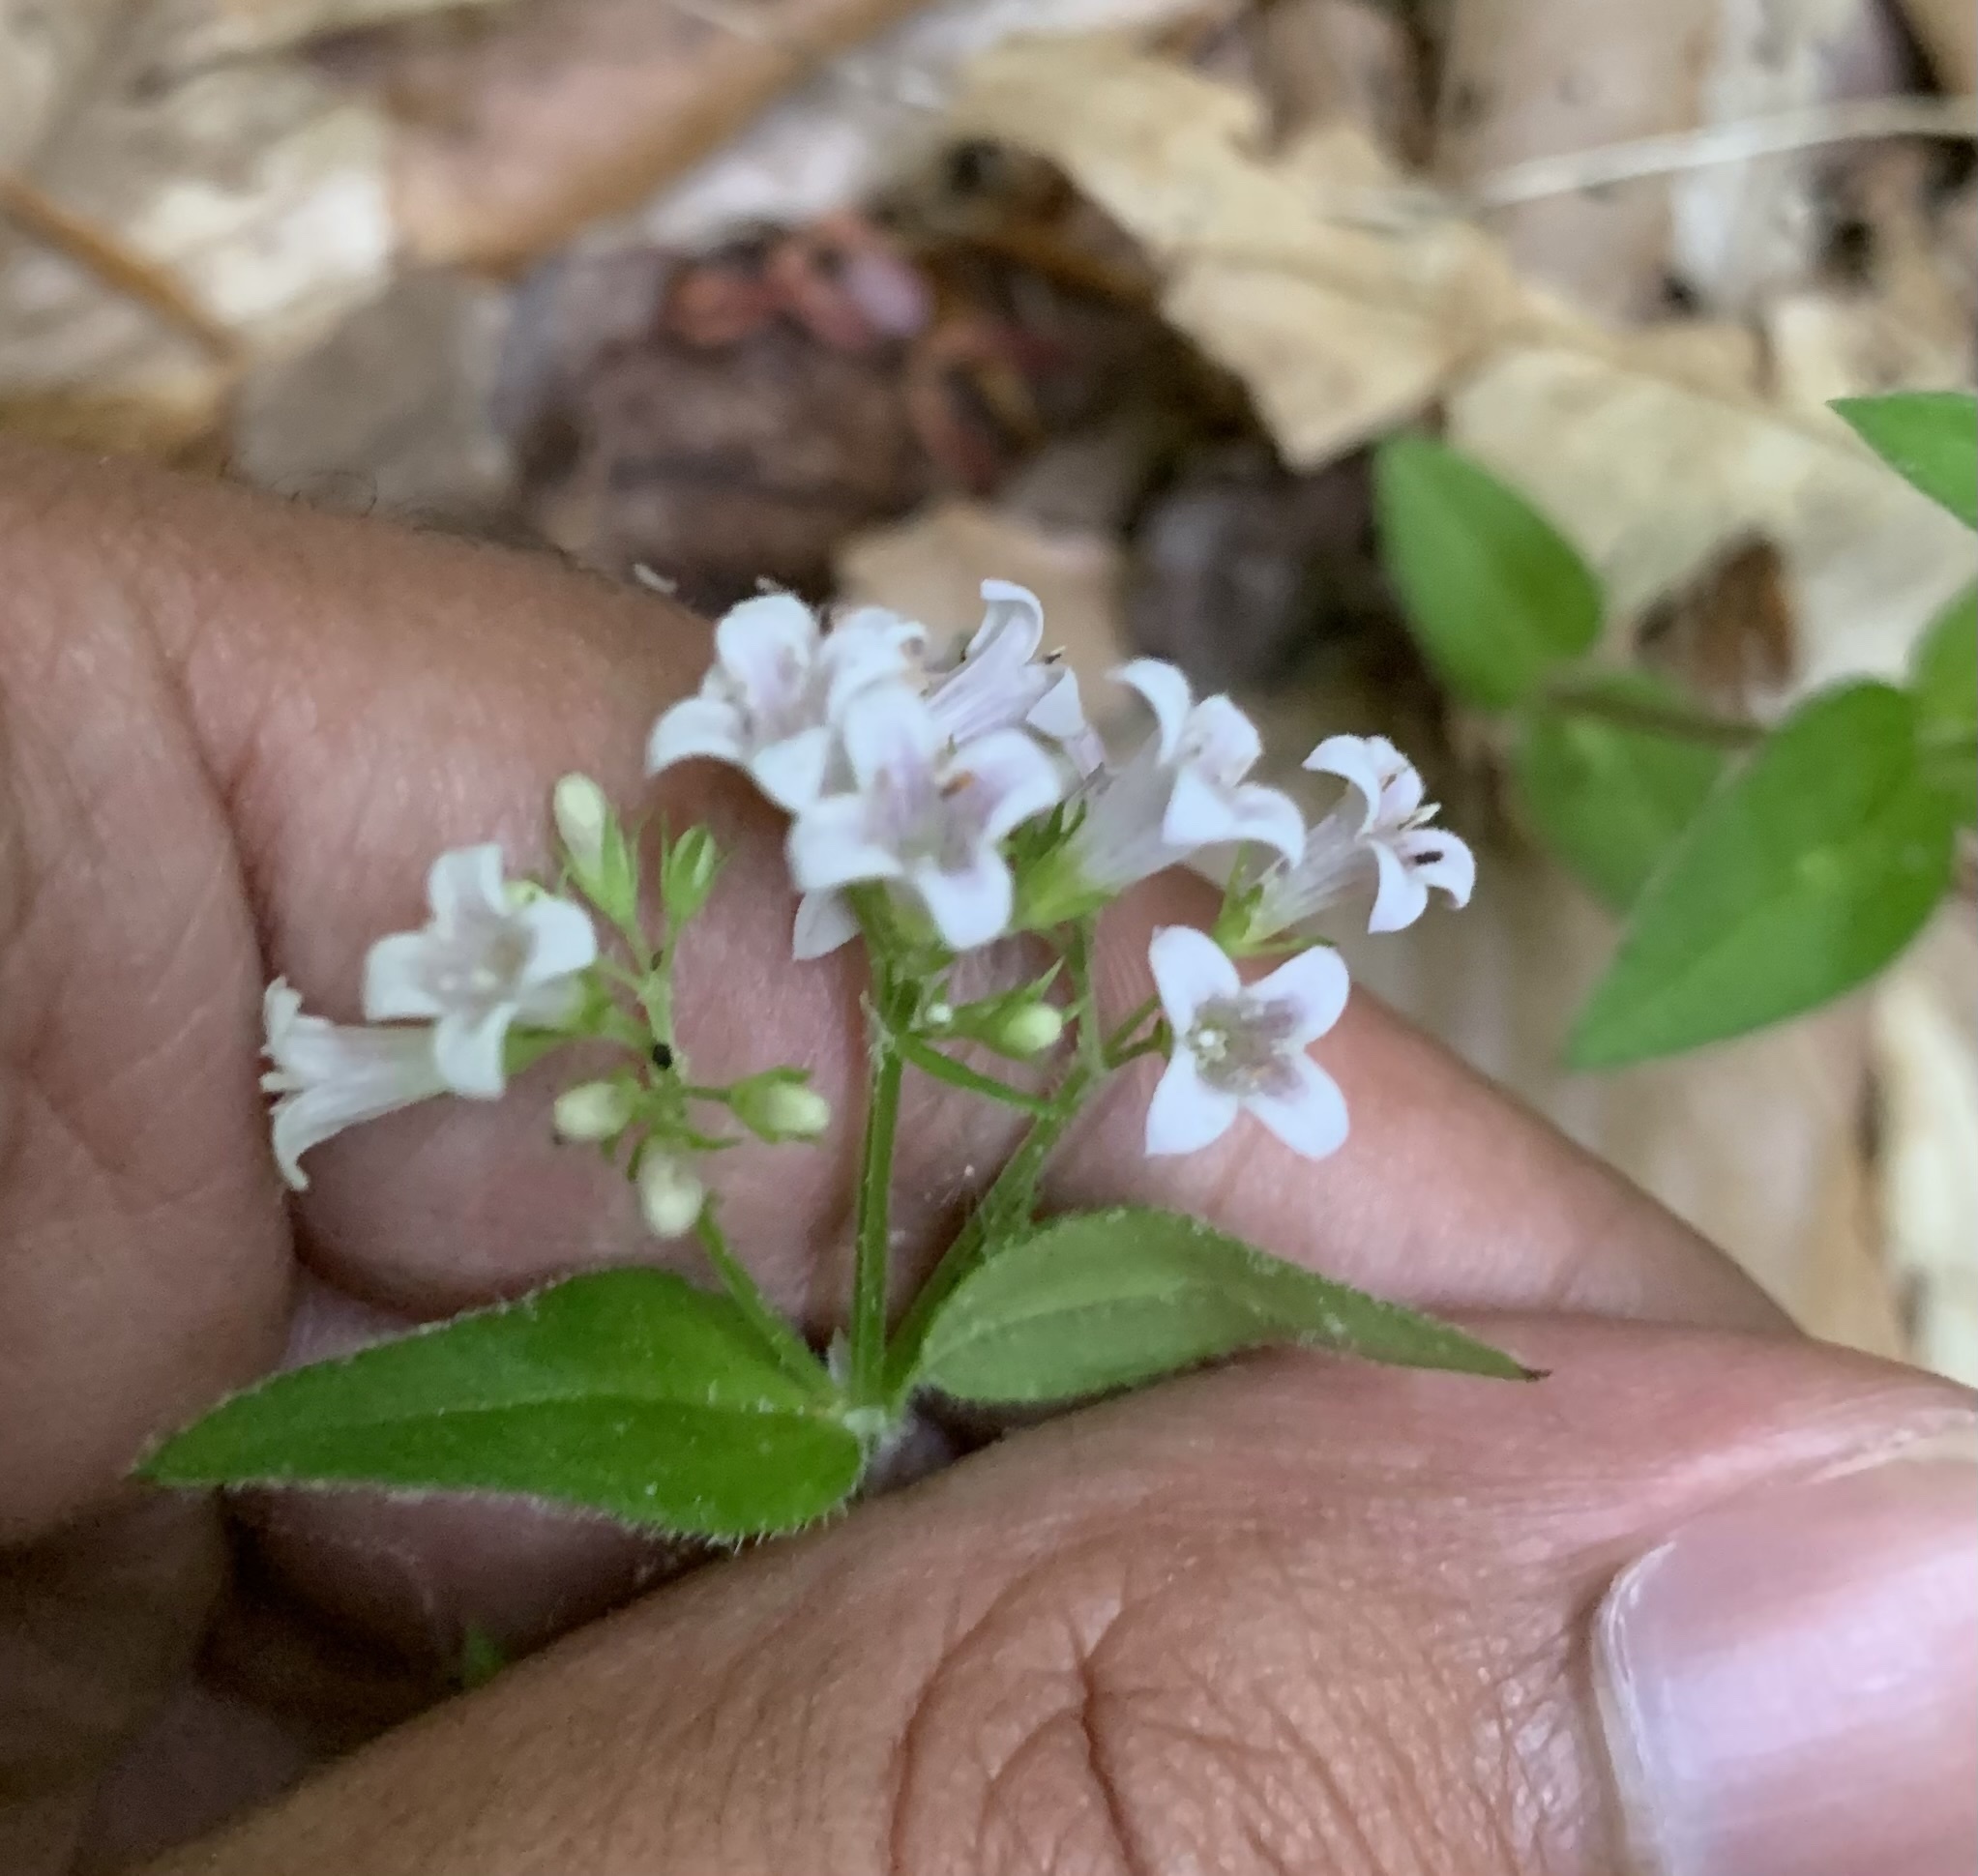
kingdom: Plantae
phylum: Tracheophyta
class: Magnoliopsida
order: Gentianales
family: Rubiaceae
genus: Houstonia
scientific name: Houstonia purpurea
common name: Summer bluet
